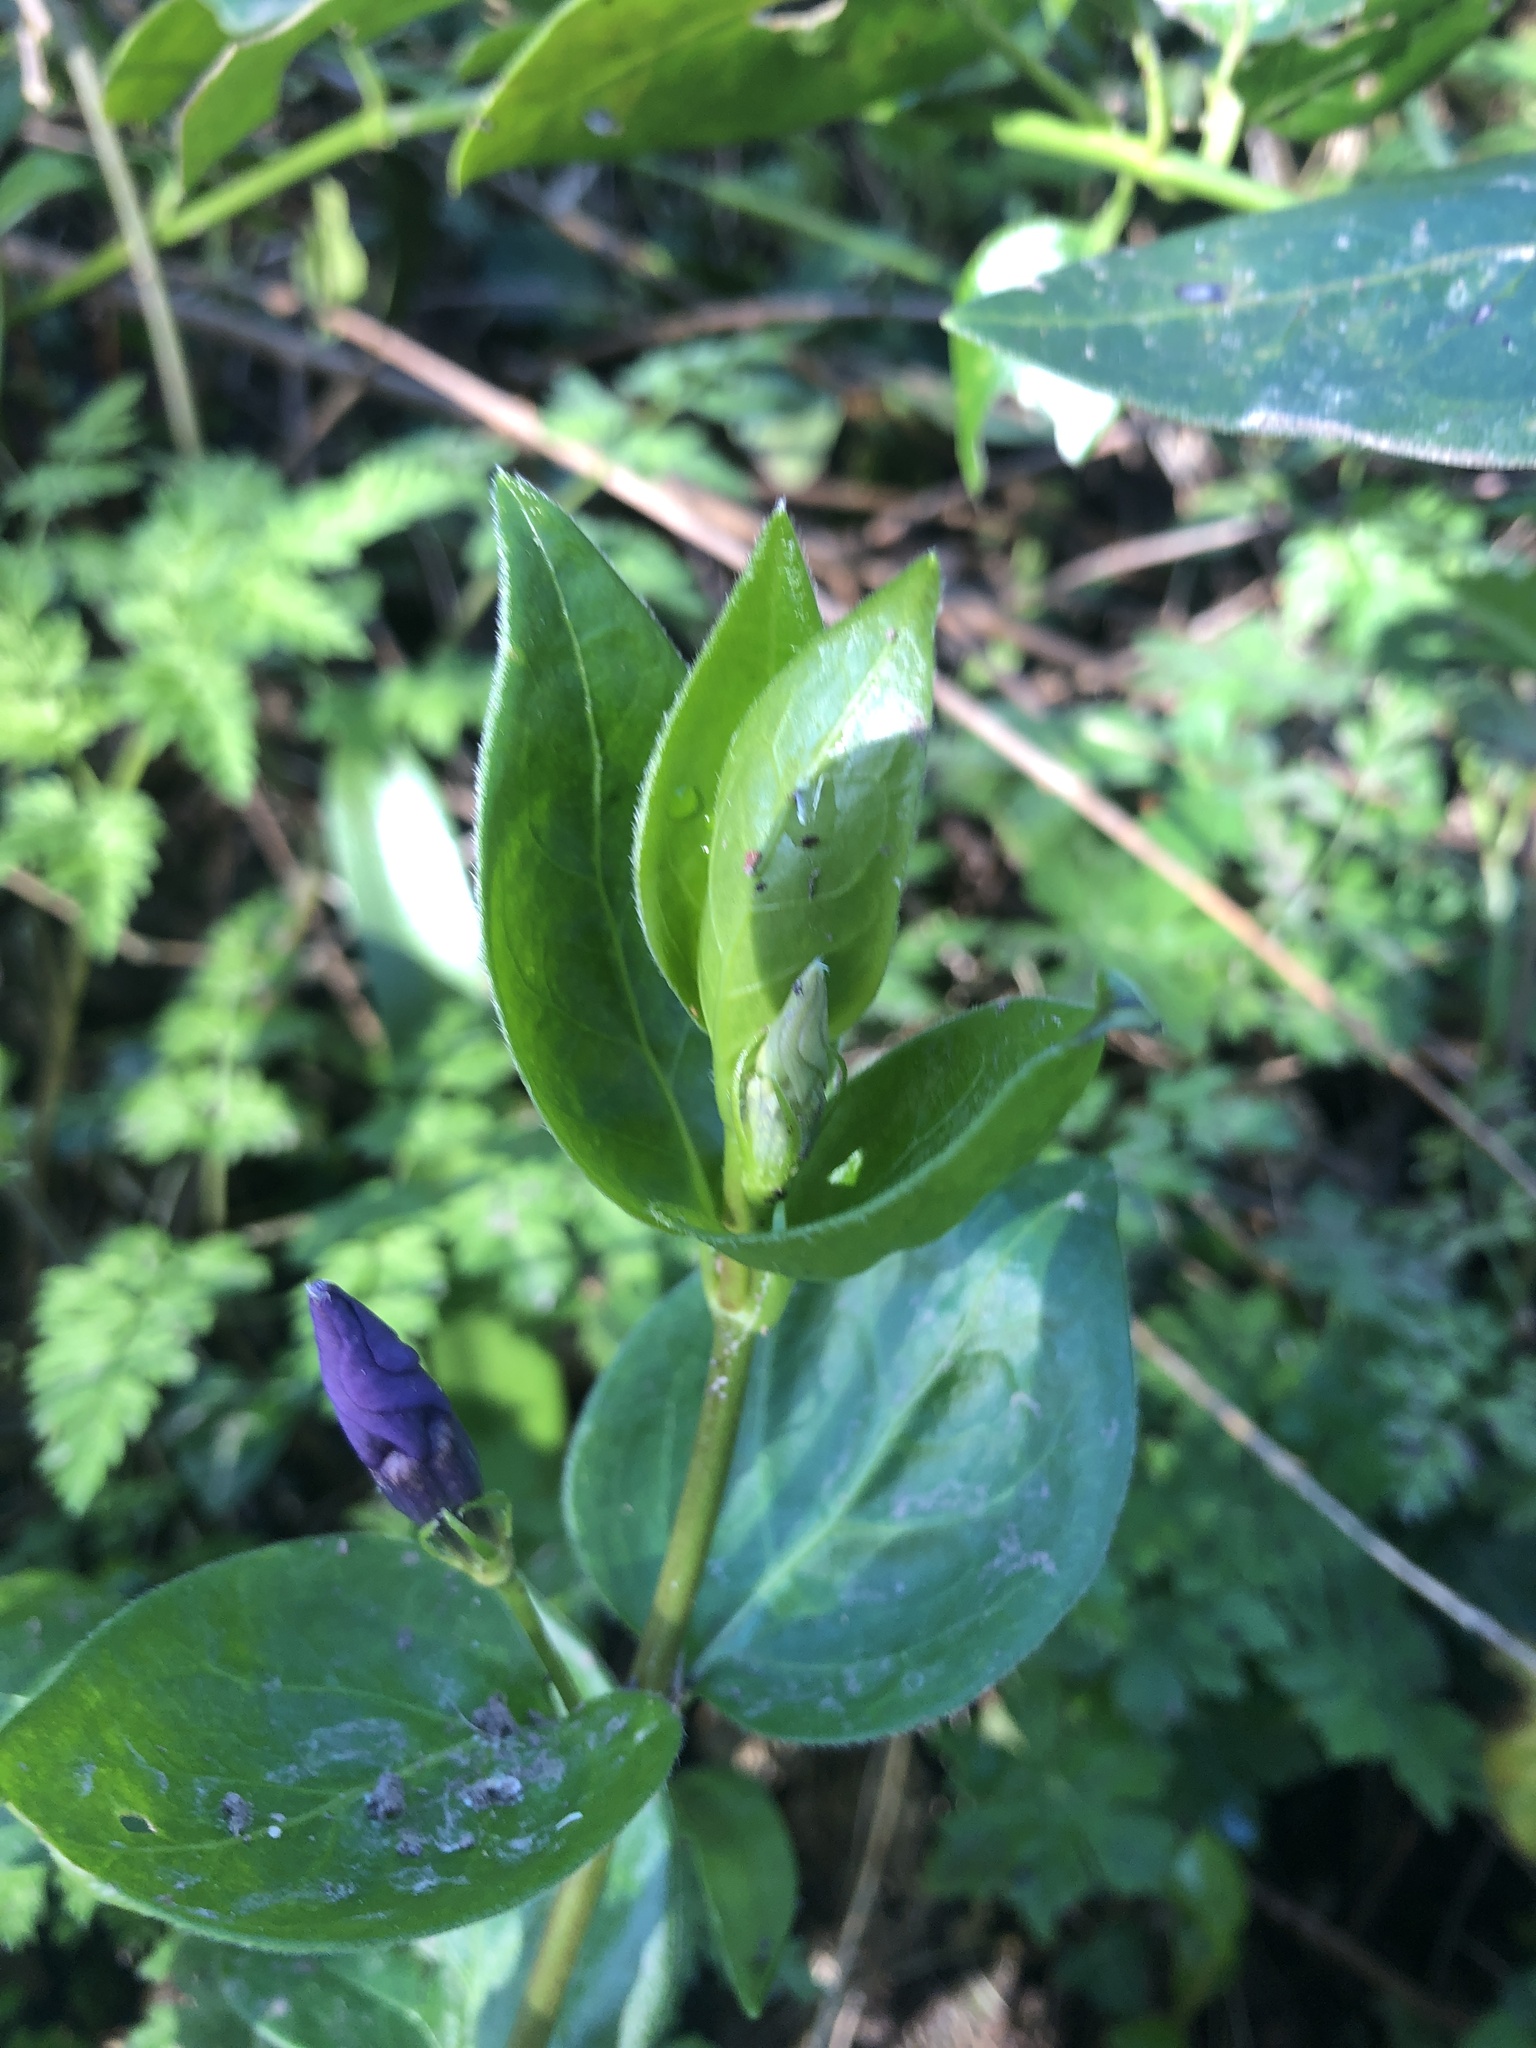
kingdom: Plantae
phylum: Tracheophyta
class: Magnoliopsida
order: Gentianales
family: Apocynaceae
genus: Vinca
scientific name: Vinca major
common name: Greater periwinkle
